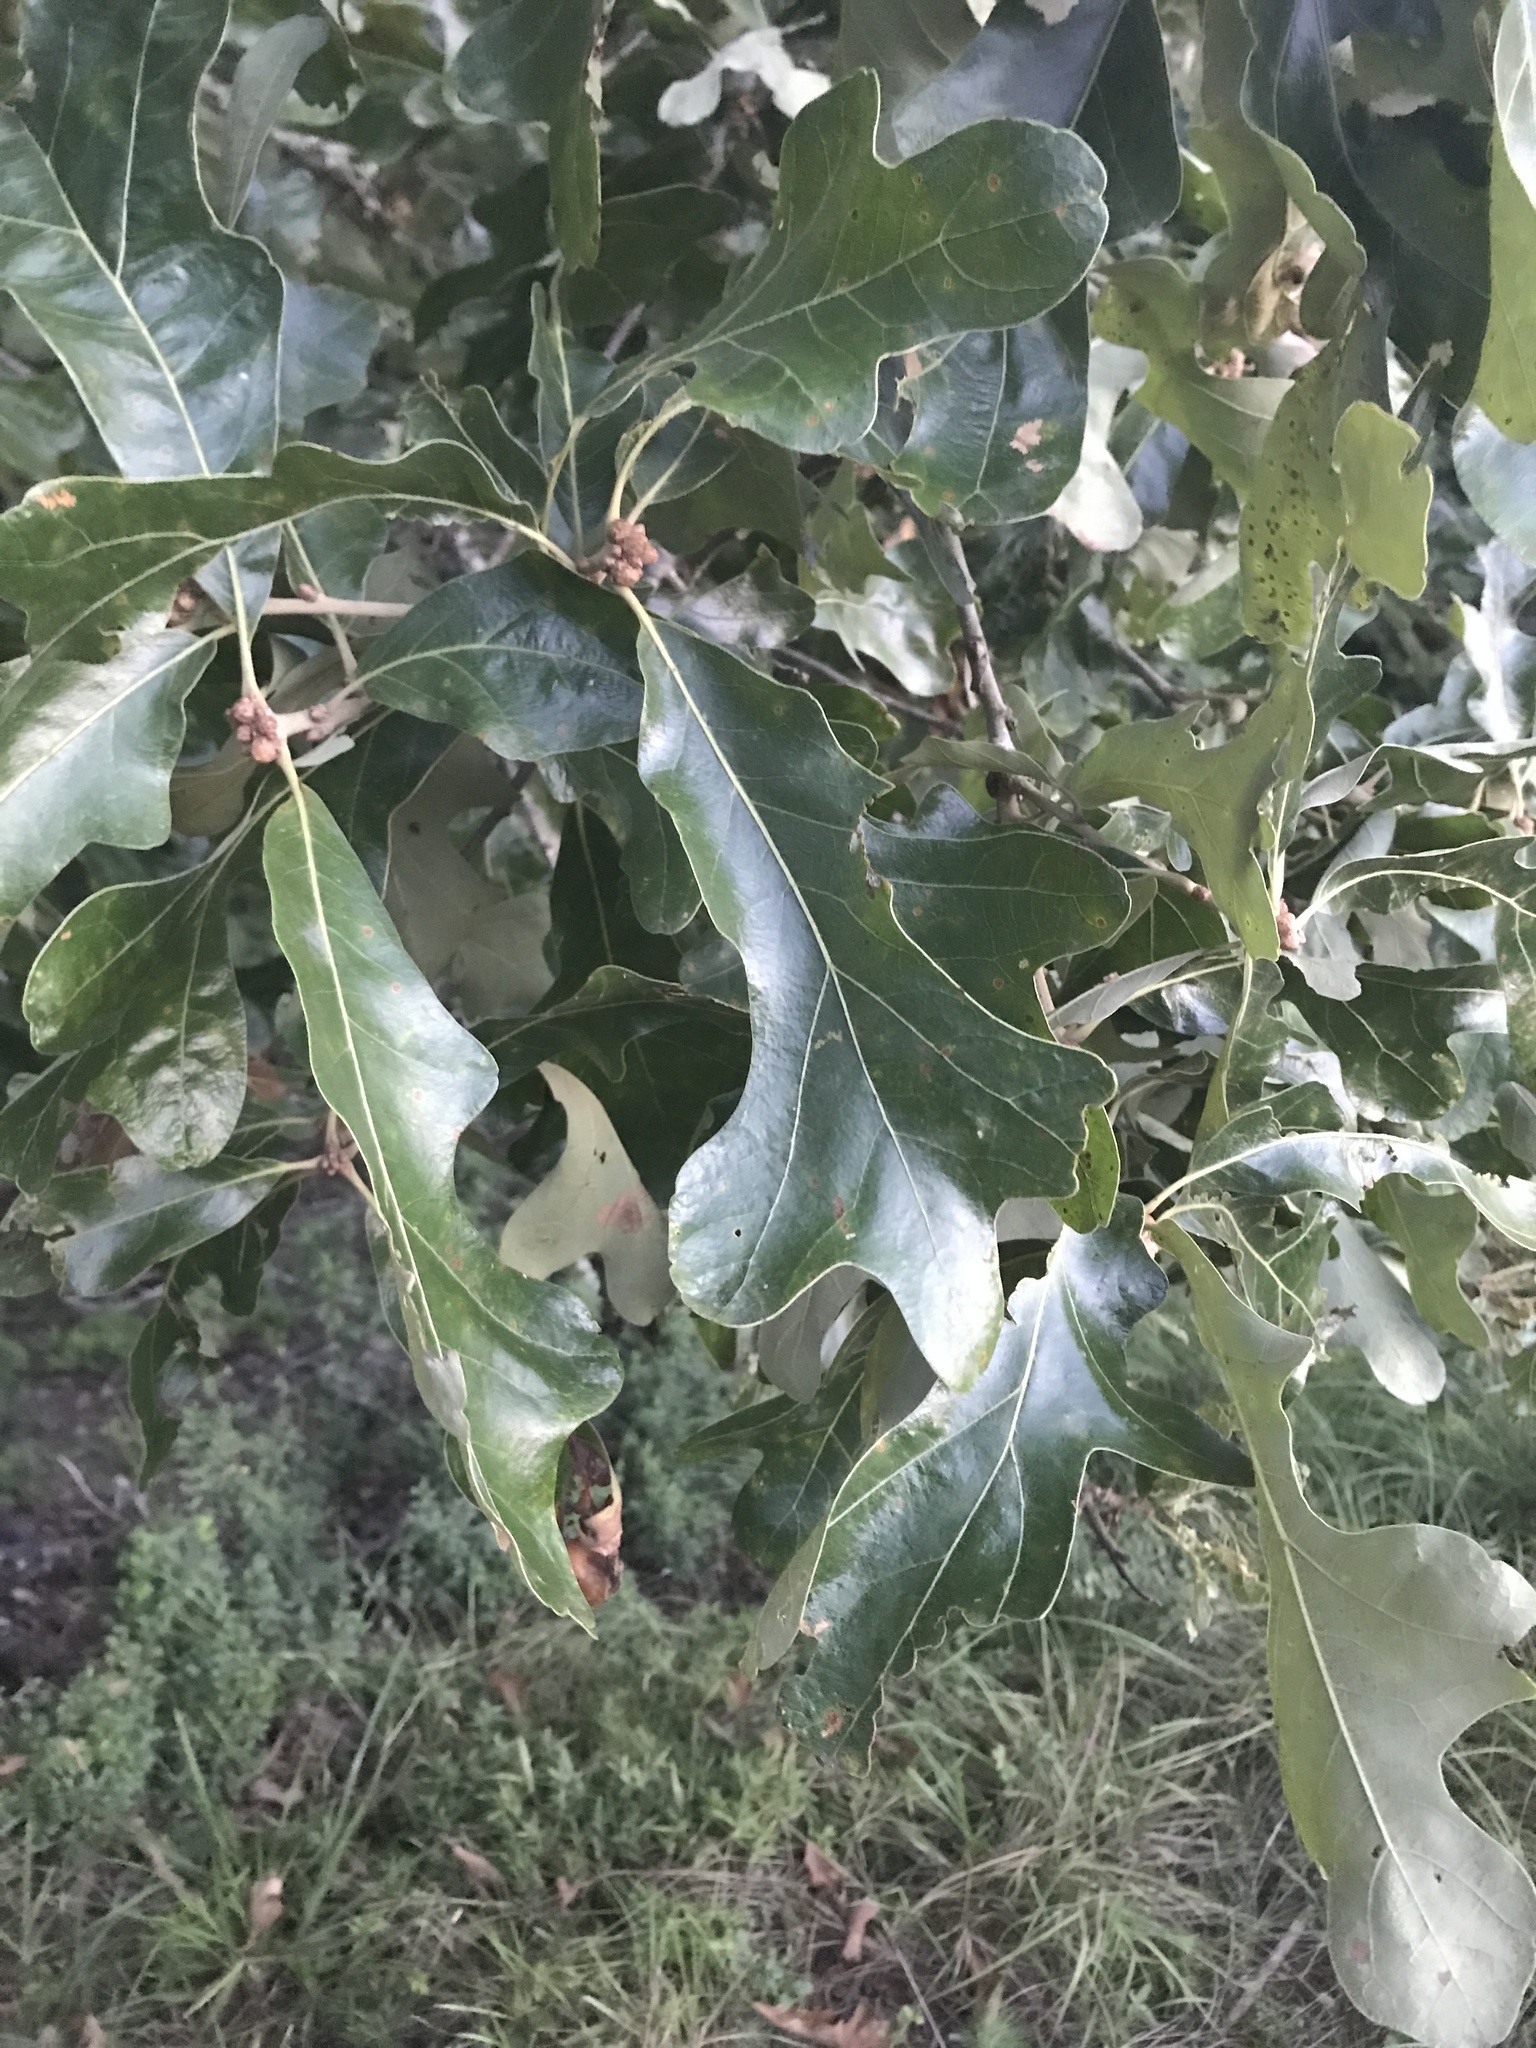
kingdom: Plantae
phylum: Tracheophyta
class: Magnoliopsida
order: Fagales
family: Fagaceae
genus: Quercus
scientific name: Quercus stellata
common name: Post oak
